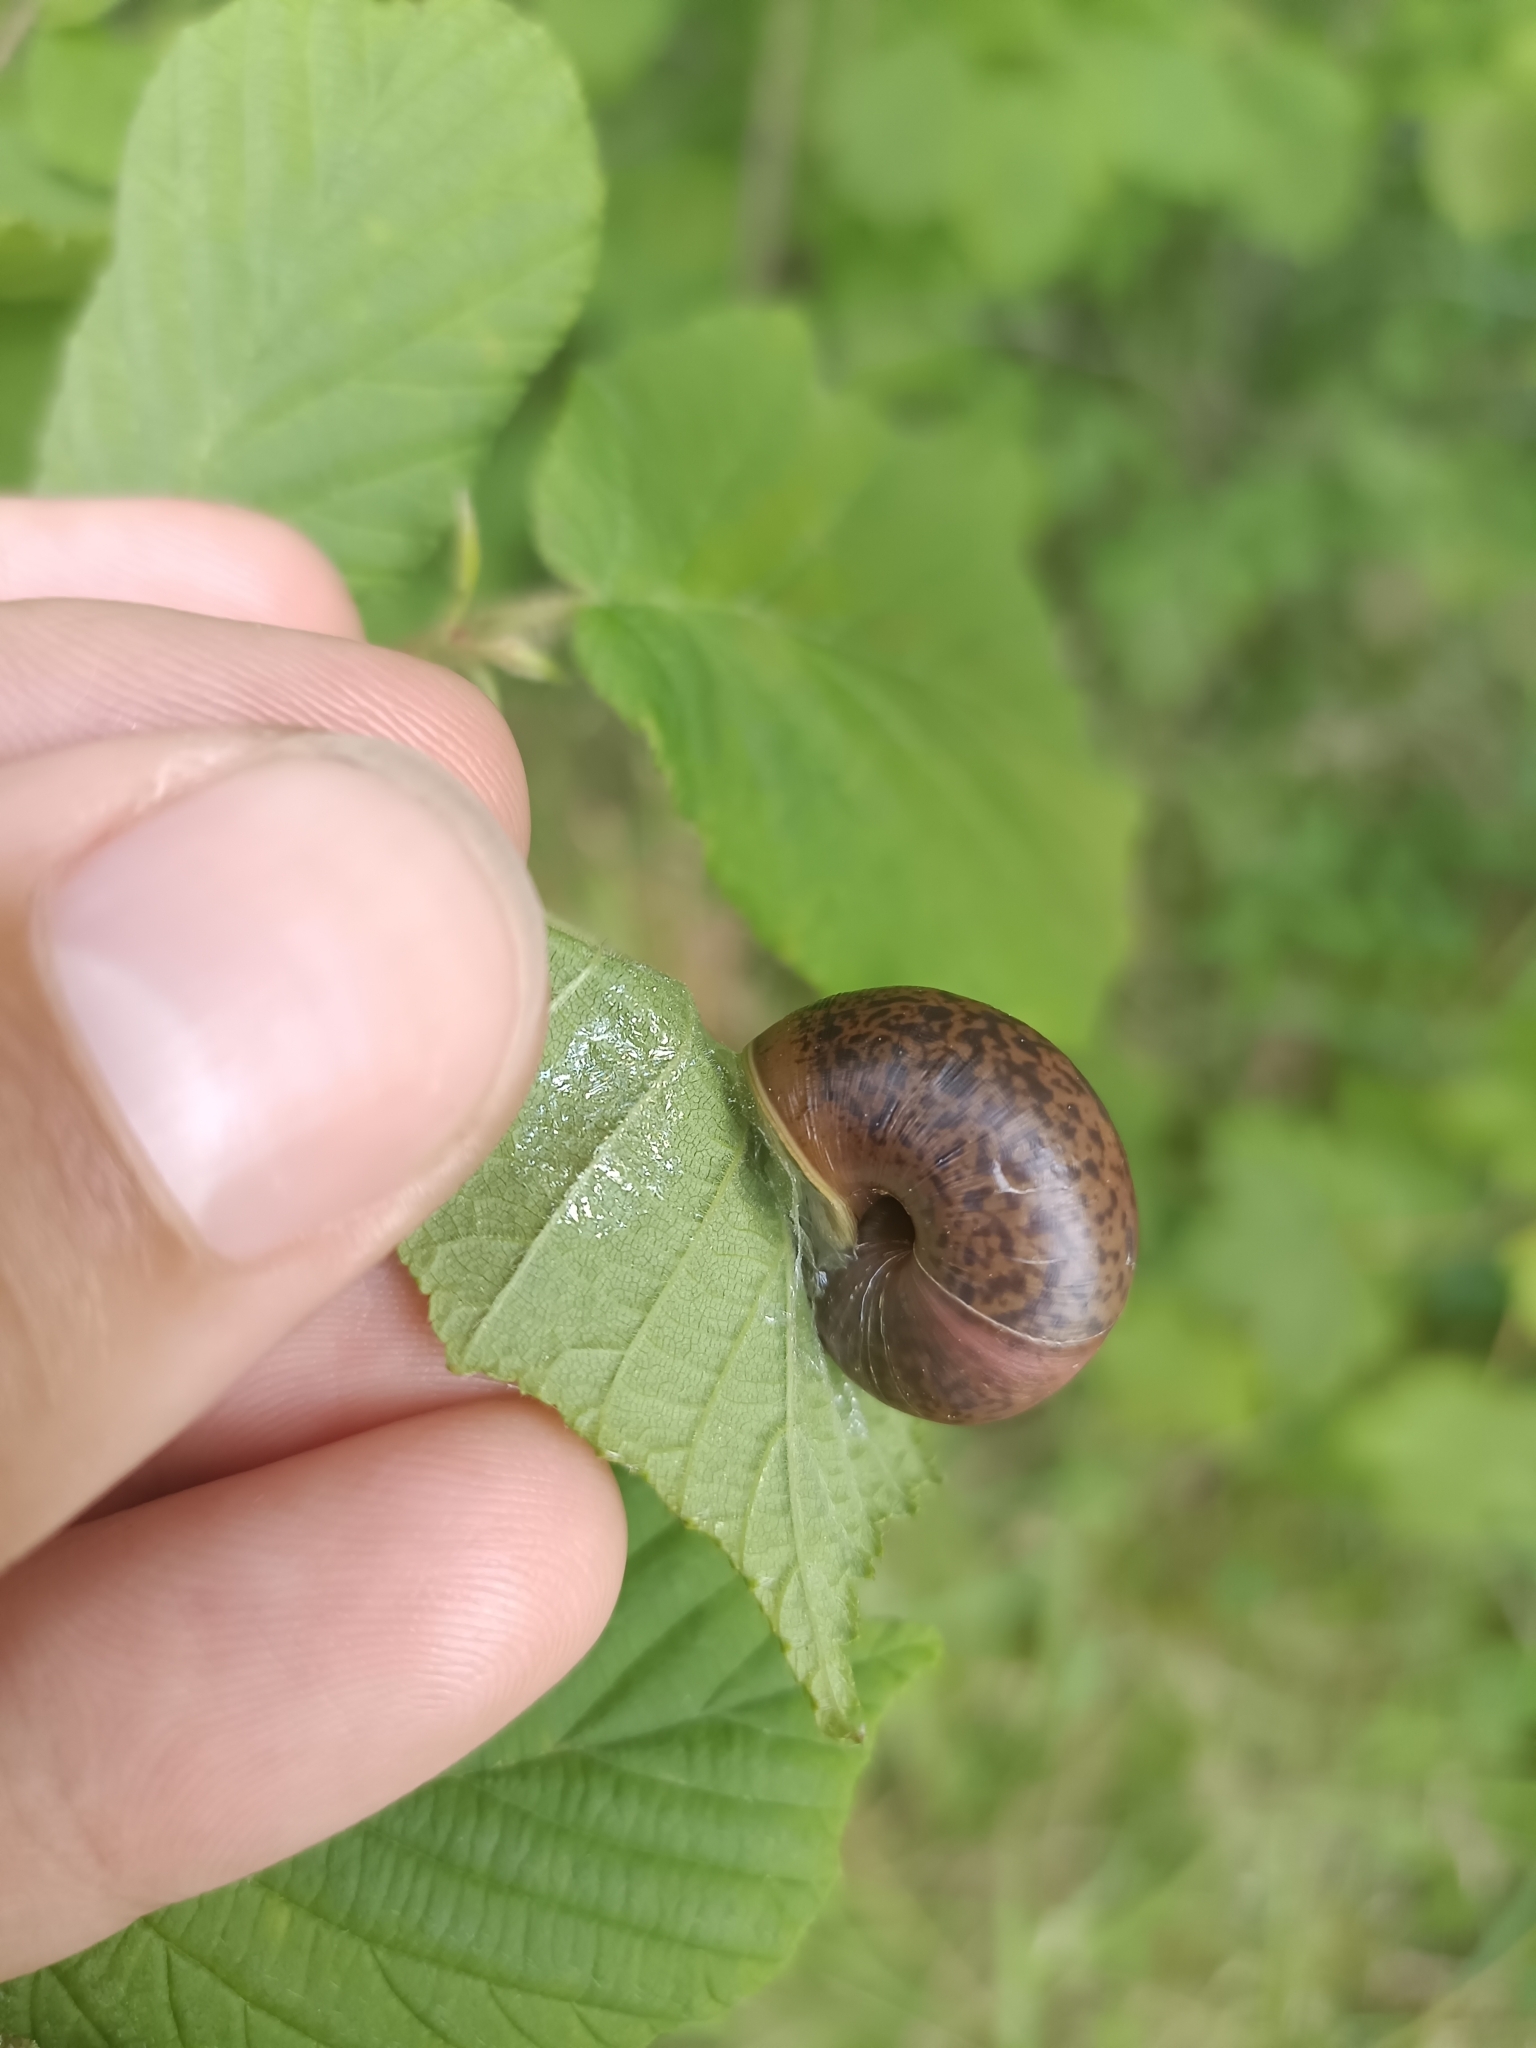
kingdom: Animalia
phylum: Mollusca
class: Gastropoda
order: Stylommatophora
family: Camaenidae
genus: Fruticicola
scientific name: Fruticicola fruticum
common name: Bush snail
